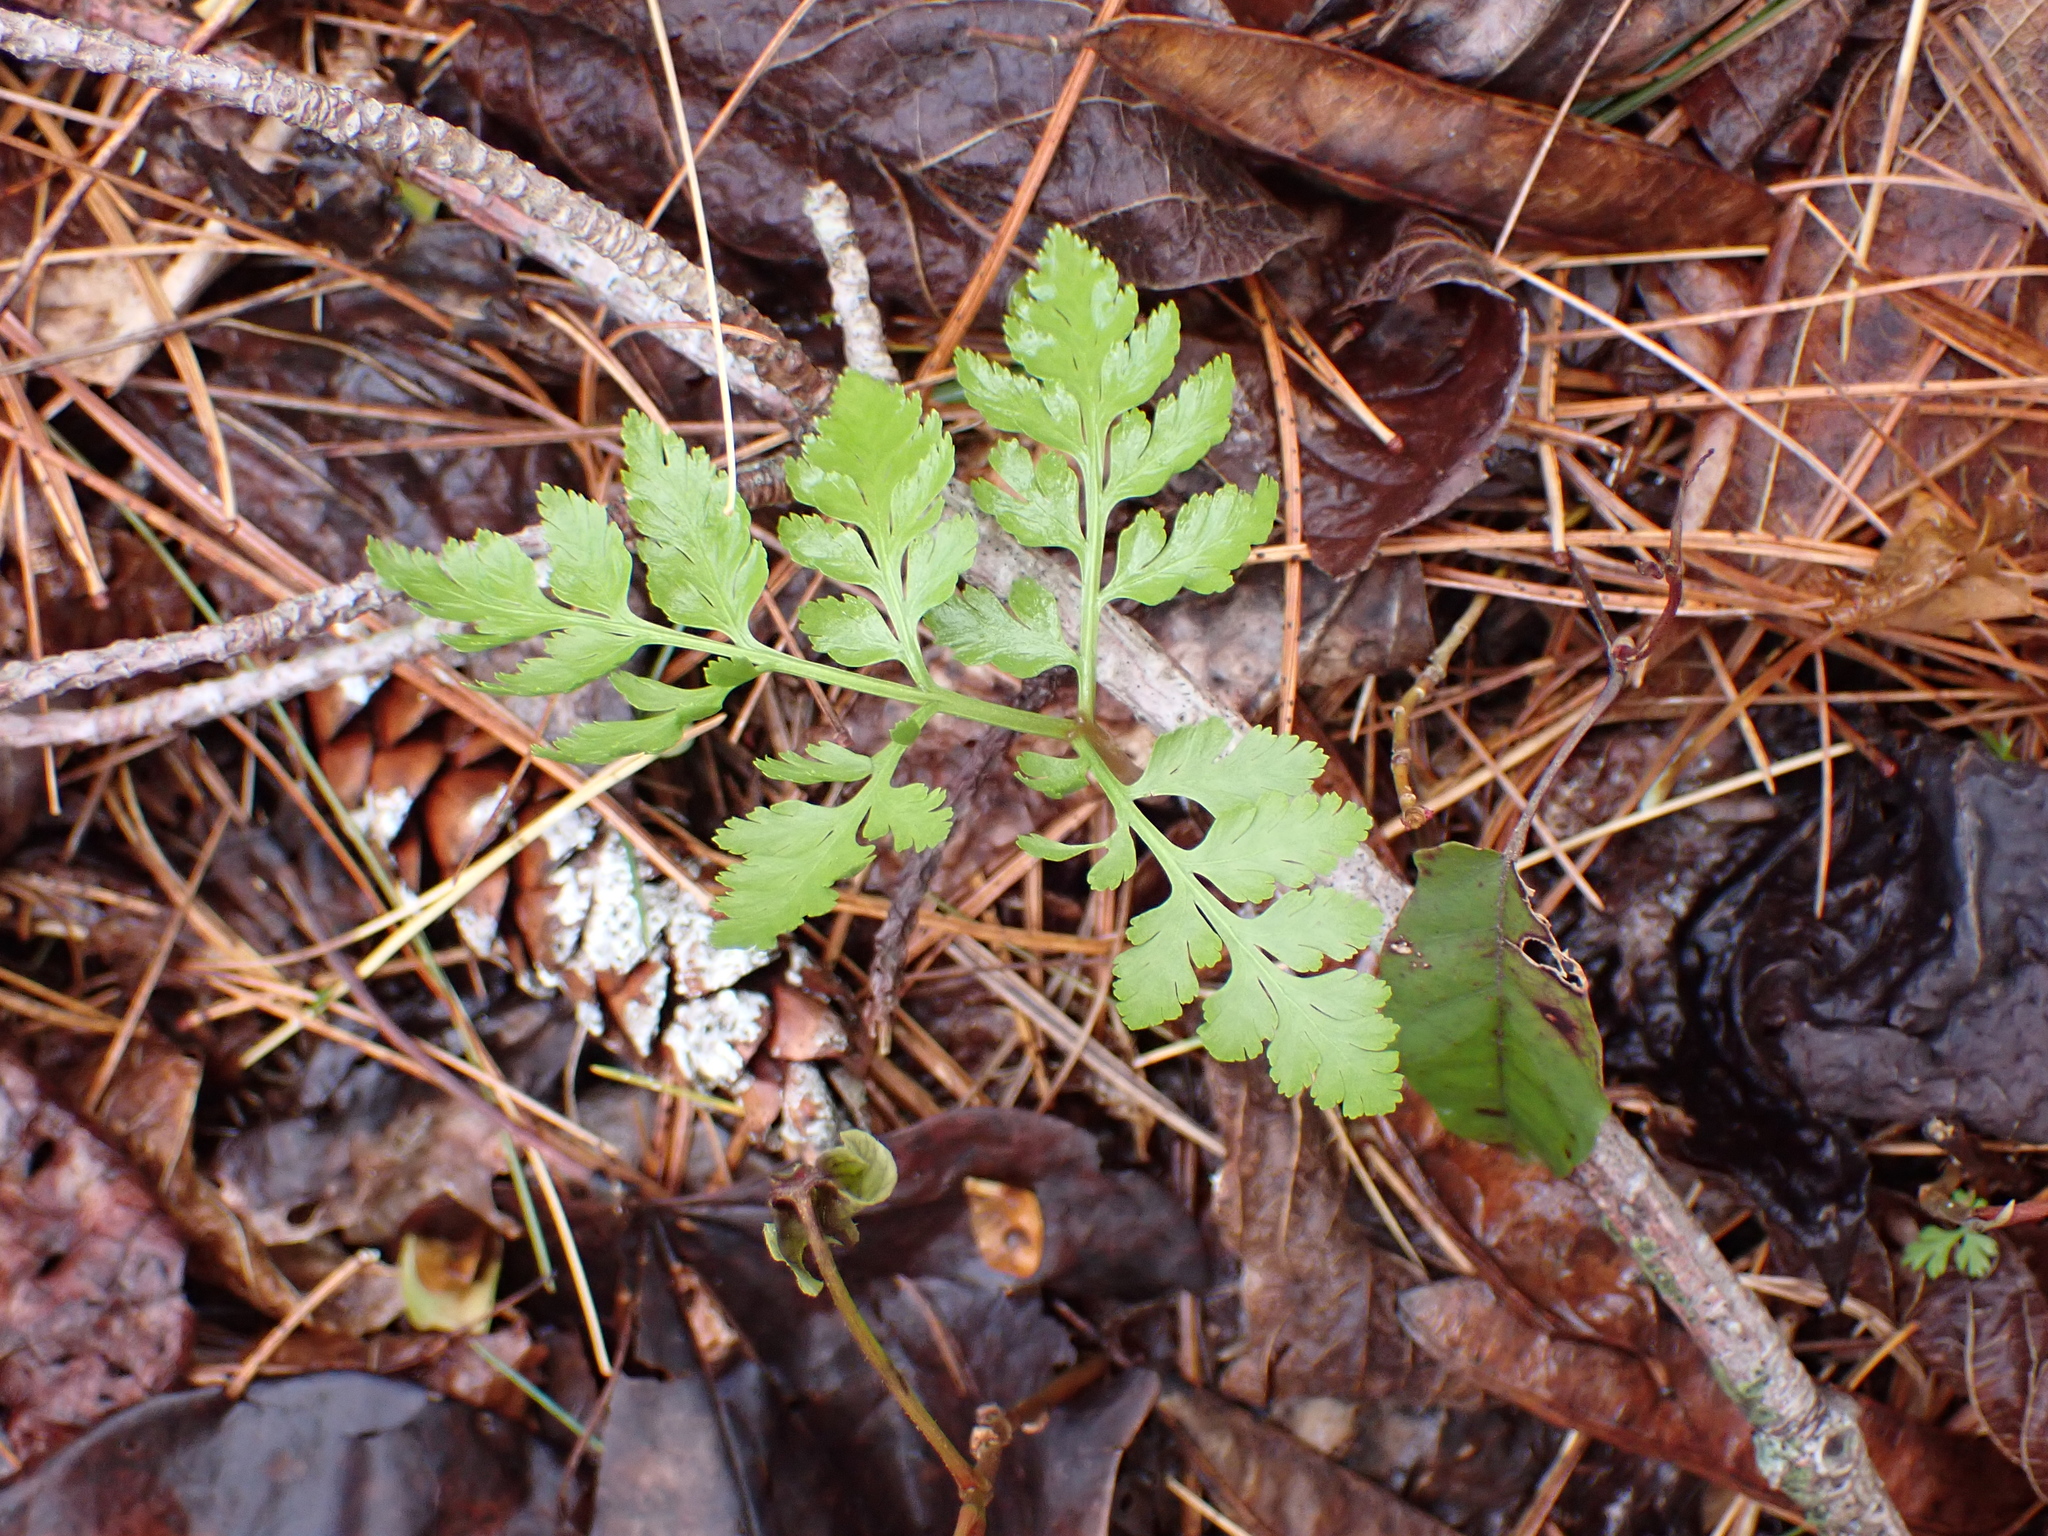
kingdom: Plantae
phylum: Tracheophyta
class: Polypodiopsida
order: Ophioglossales
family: Ophioglossaceae
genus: Botrypus
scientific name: Botrypus virginianus
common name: Common grapefern
